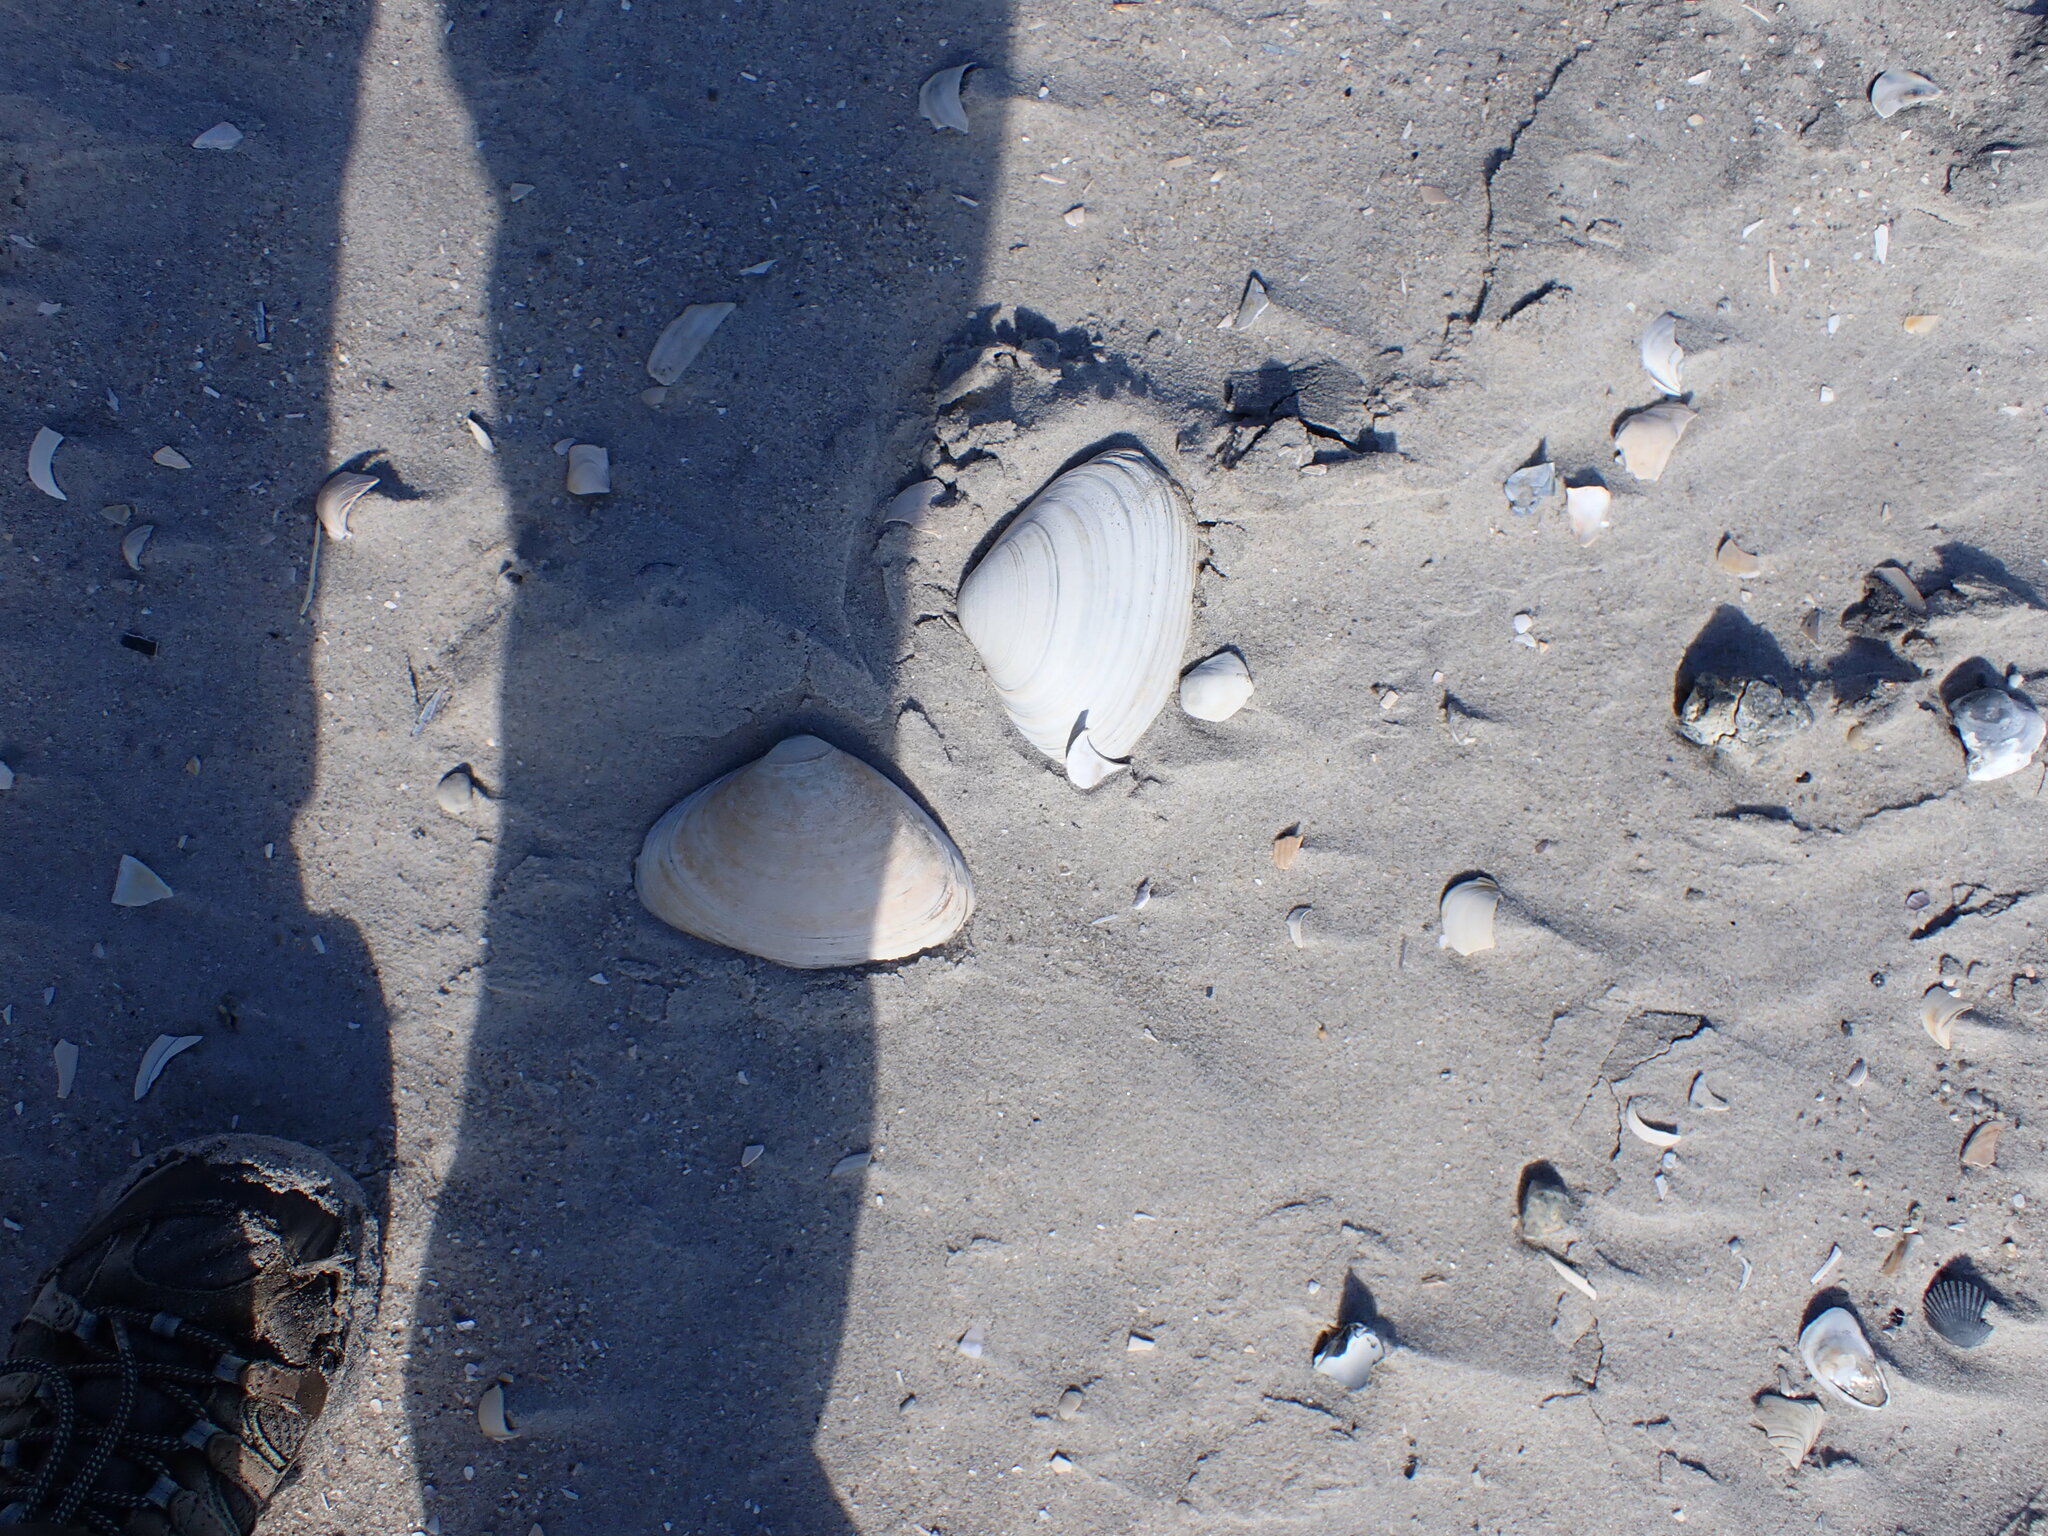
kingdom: Animalia
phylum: Mollusca
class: Bivalvia
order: Venerida
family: Mactridae
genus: Spisula
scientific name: Spisula solidissima
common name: Atlantic surf clam
